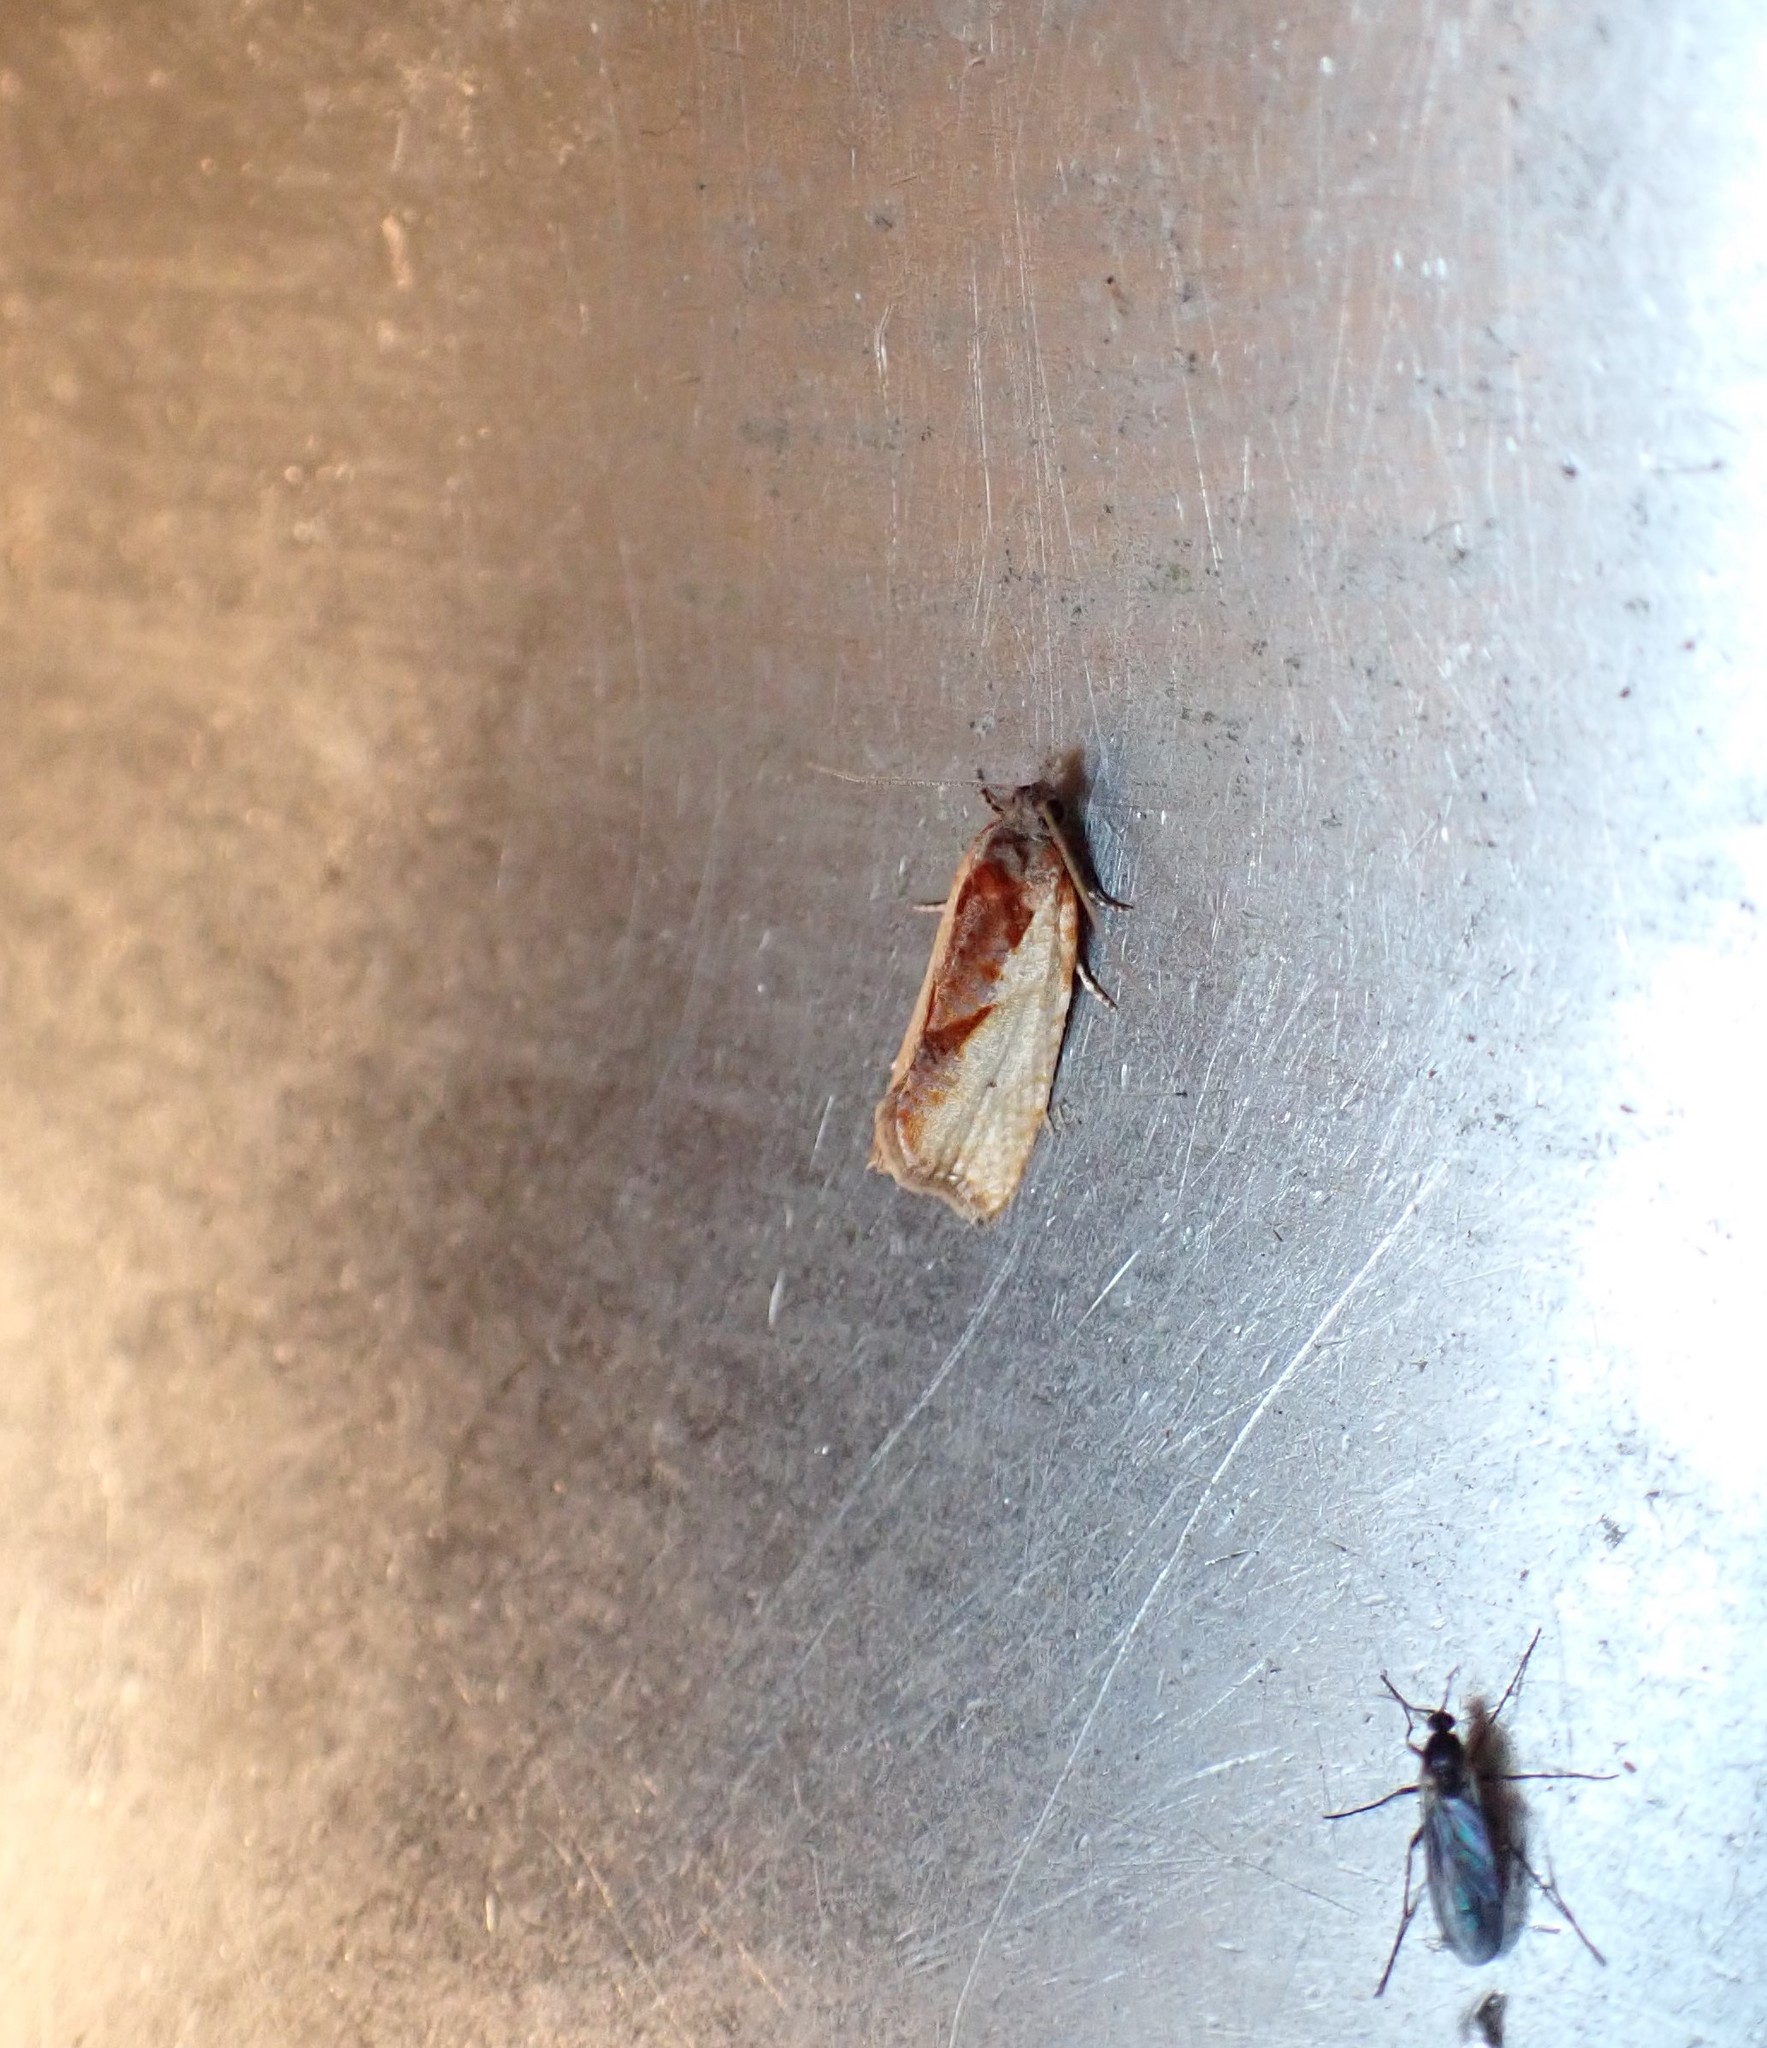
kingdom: Animalia
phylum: Arthropoda
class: Insecta
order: Lepidoptera
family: Tortricidae
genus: Pyrgotis
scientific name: Pyrgotis plagiatana
